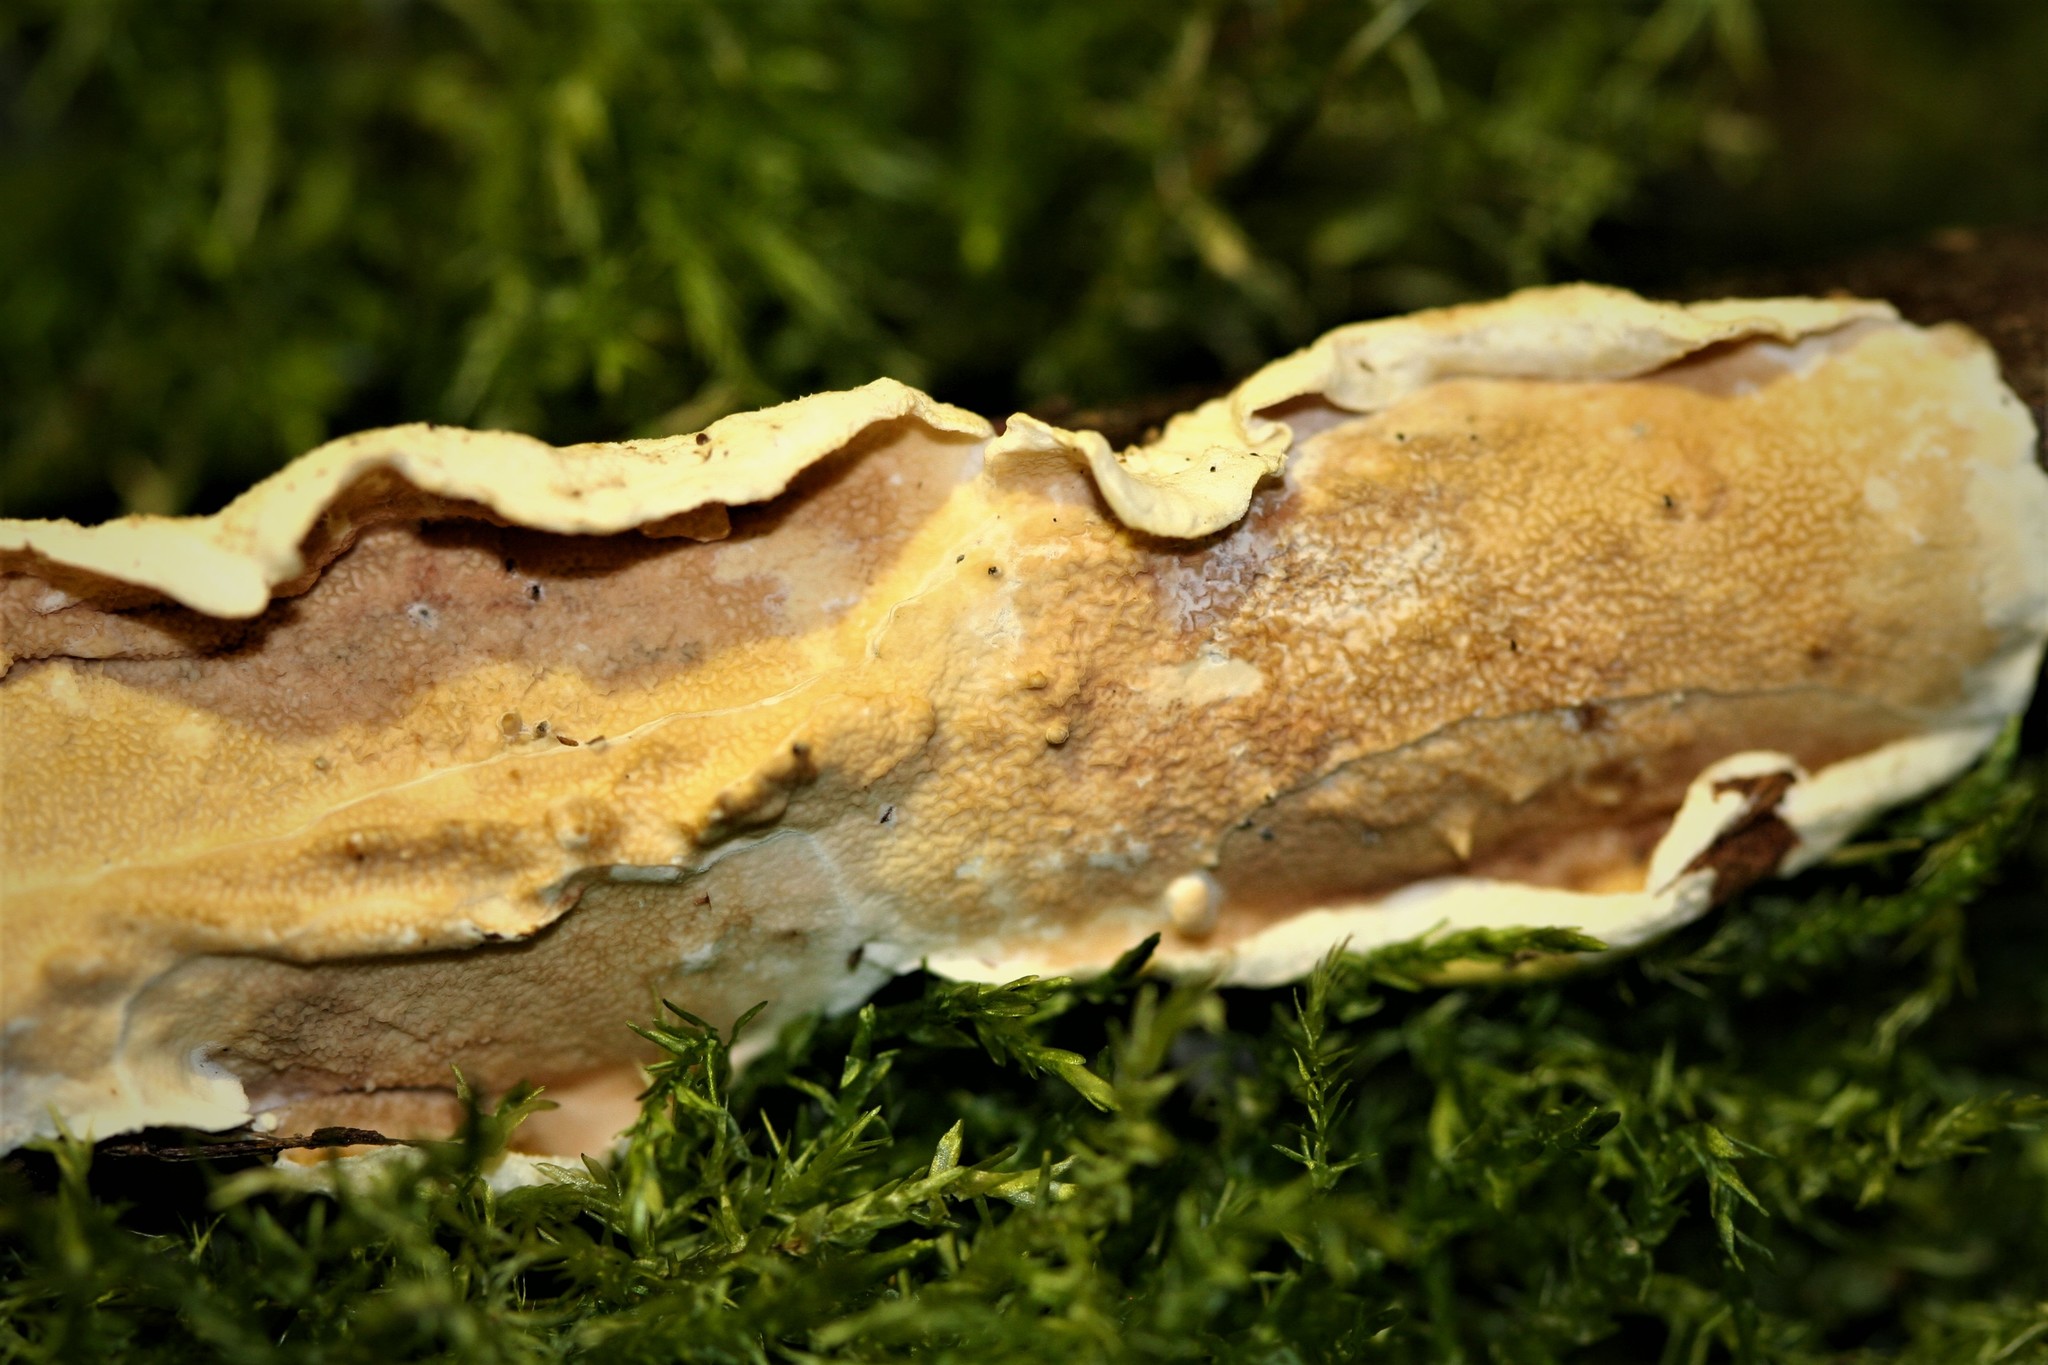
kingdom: Fungi
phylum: Basidiomycota
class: Agaricomycetes
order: Polyporales
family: Irpicaceae
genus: Byssomerulius
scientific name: Byssomerulius corium
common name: Netted crust
